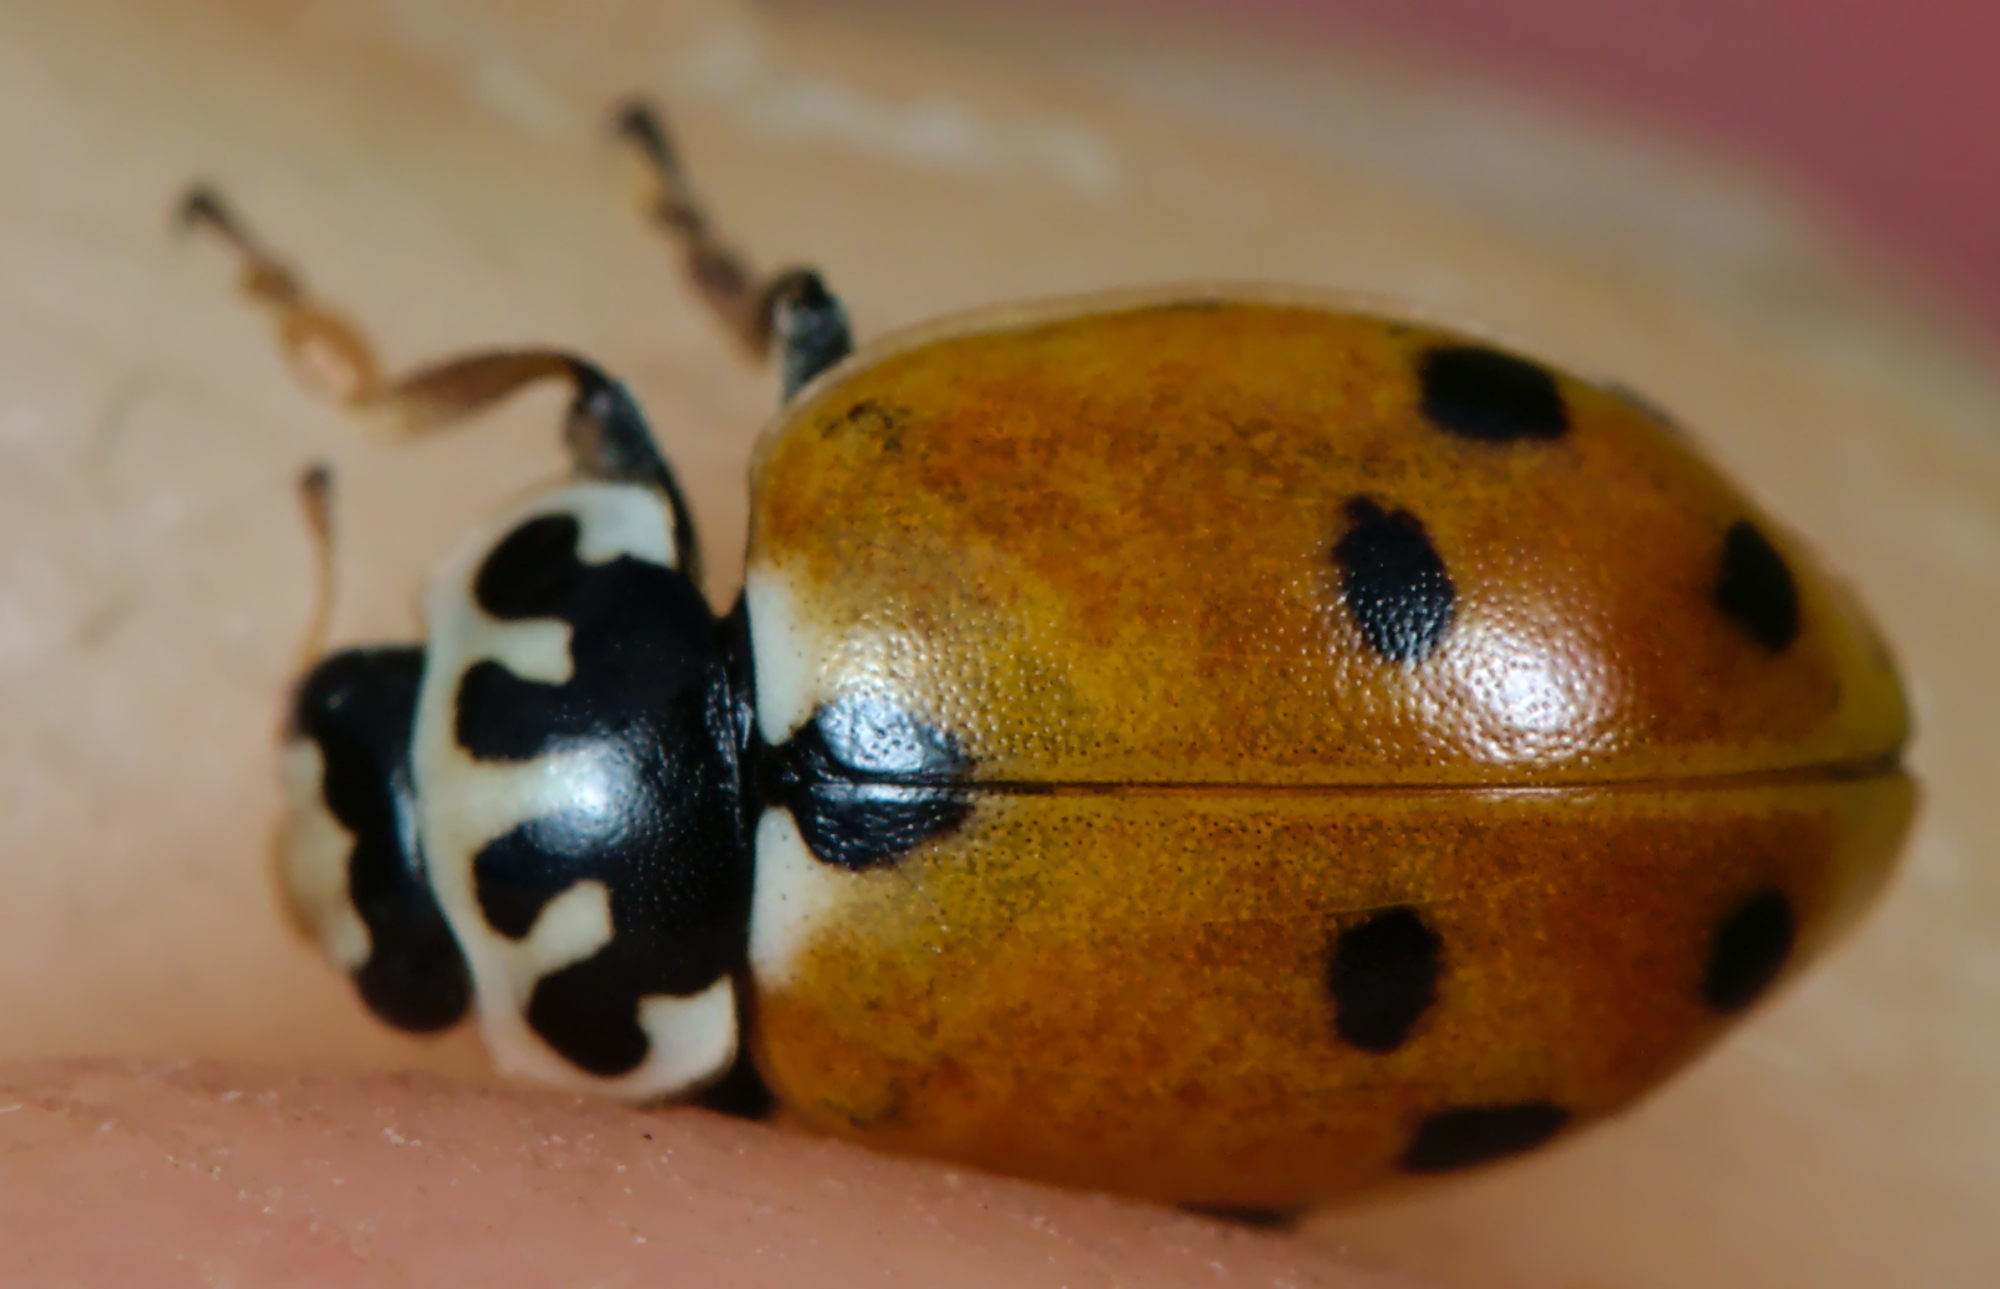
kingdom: Animalia
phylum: Arthropoda
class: Insecta
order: Coleoptera
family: Coccinellidae
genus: Hippodamia
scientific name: Hippodamia variegata
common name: Ladybird beetle
